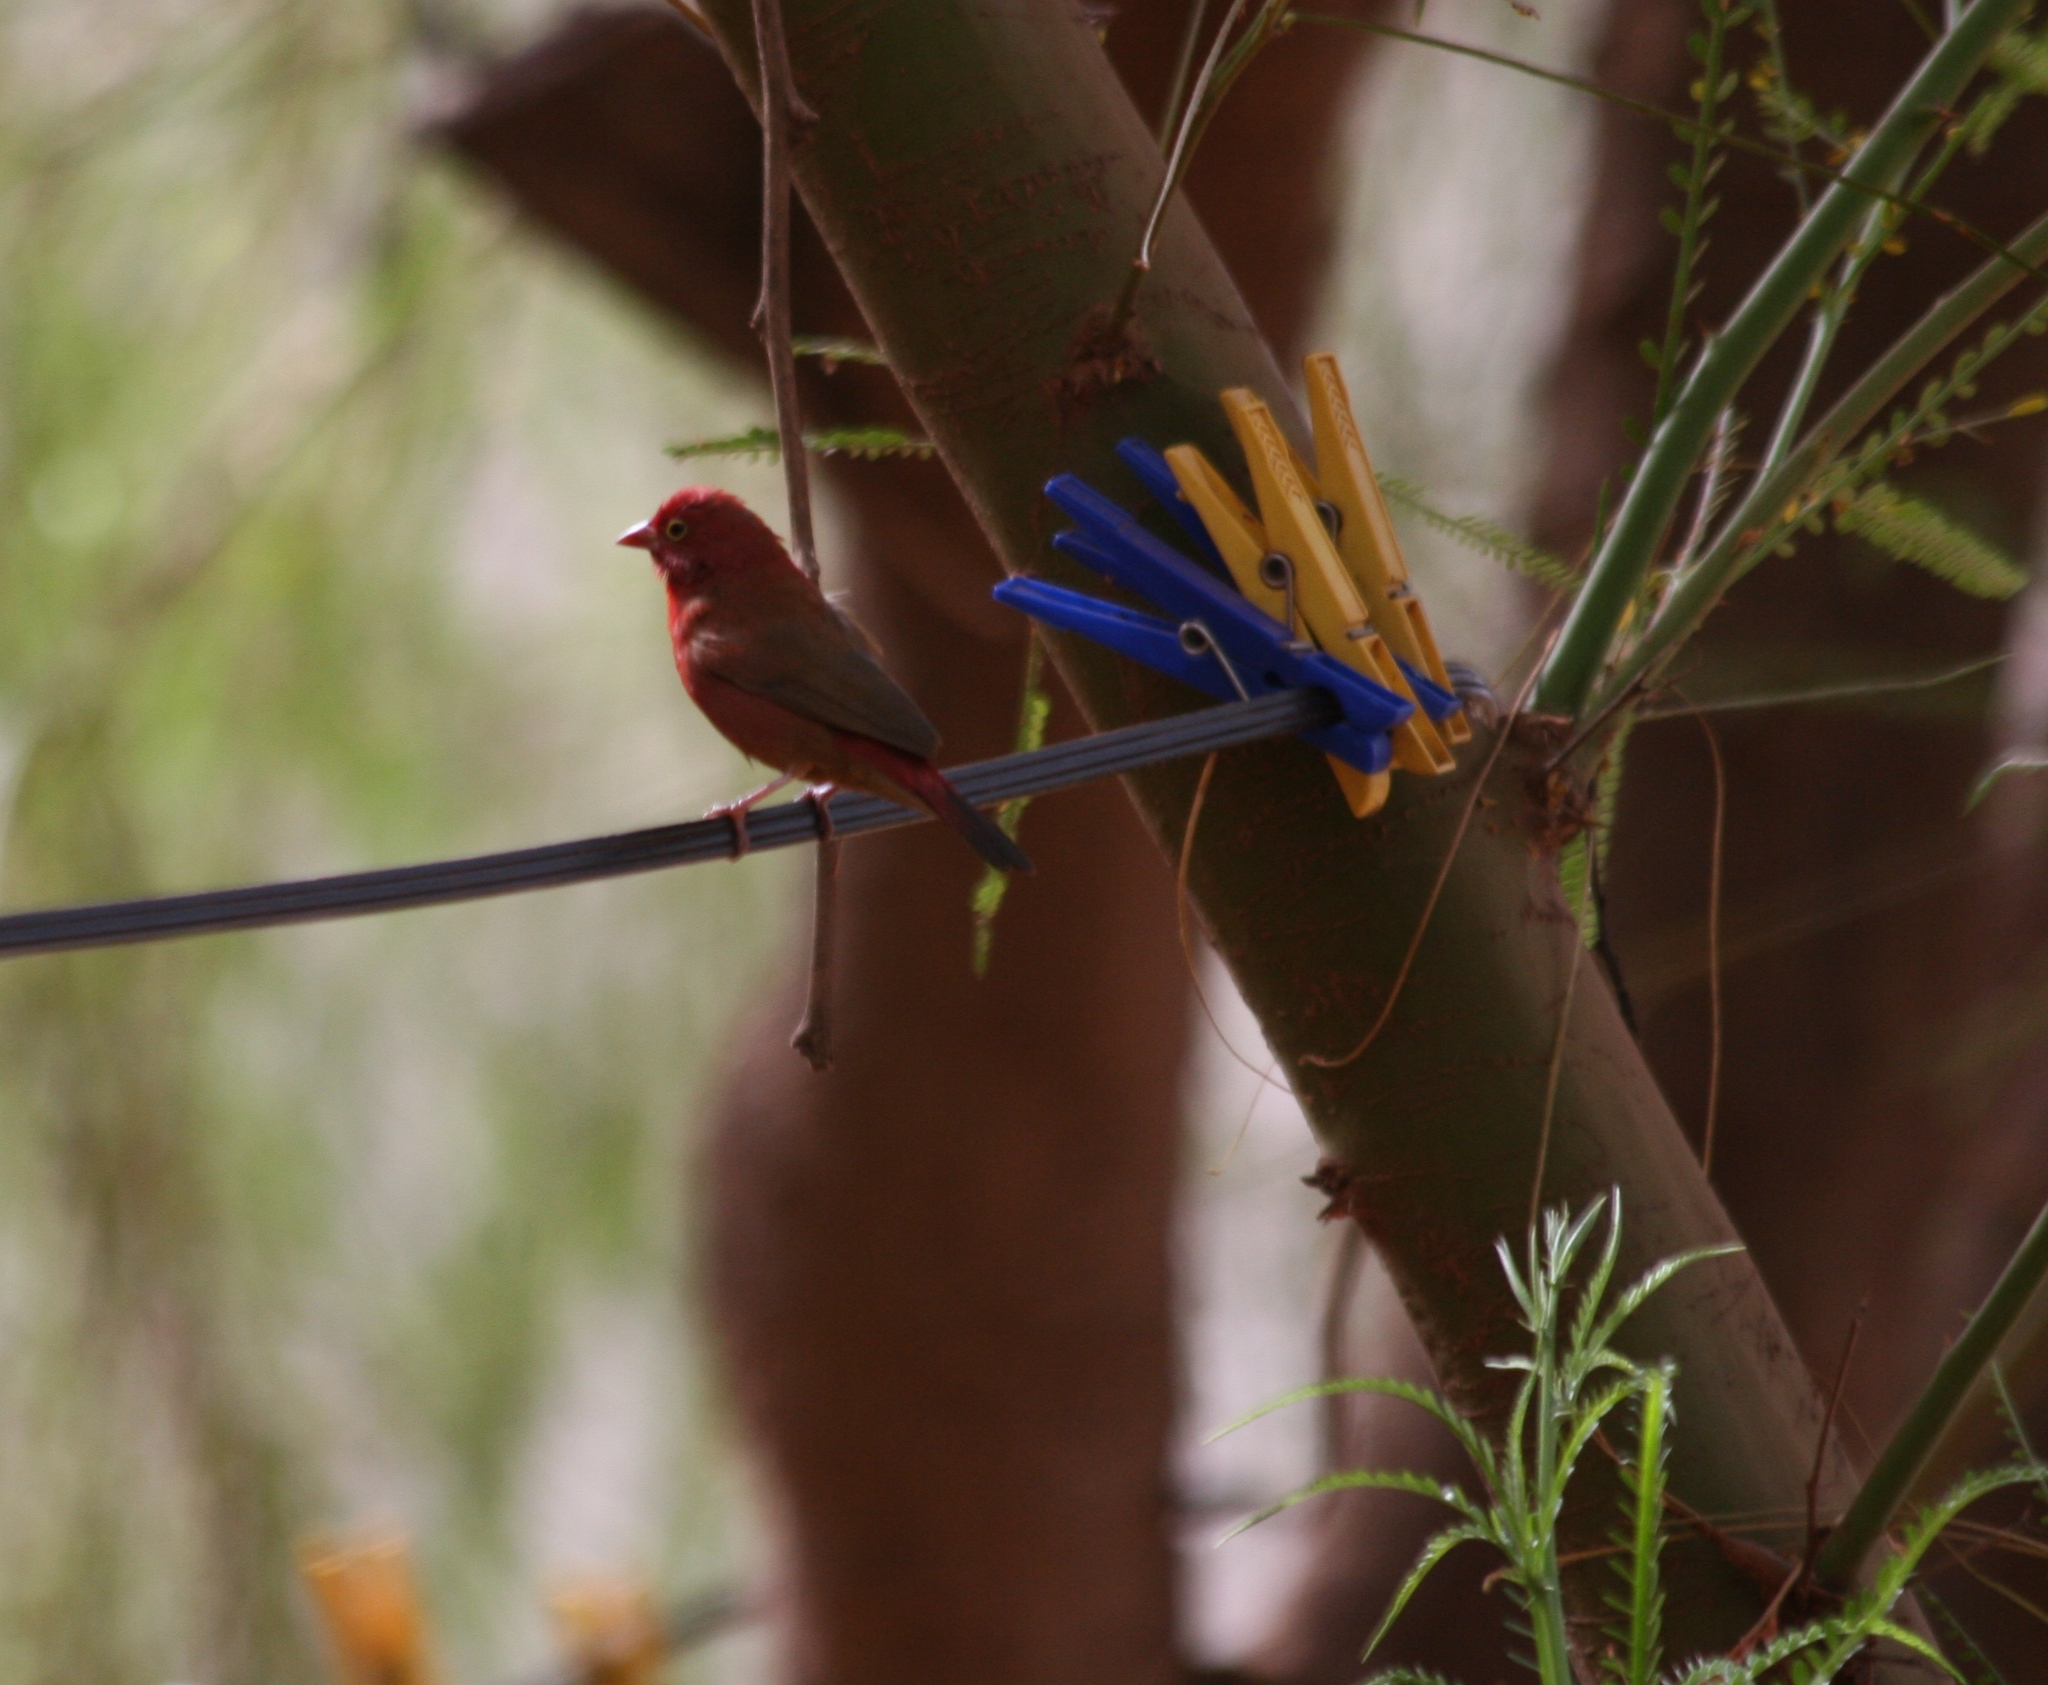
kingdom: Animalia
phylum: Chordata
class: Aves
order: Passeriformes
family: Estrildidae
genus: Lagonosticta
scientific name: Lagonosticta senegala
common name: Red-billed firefinch
